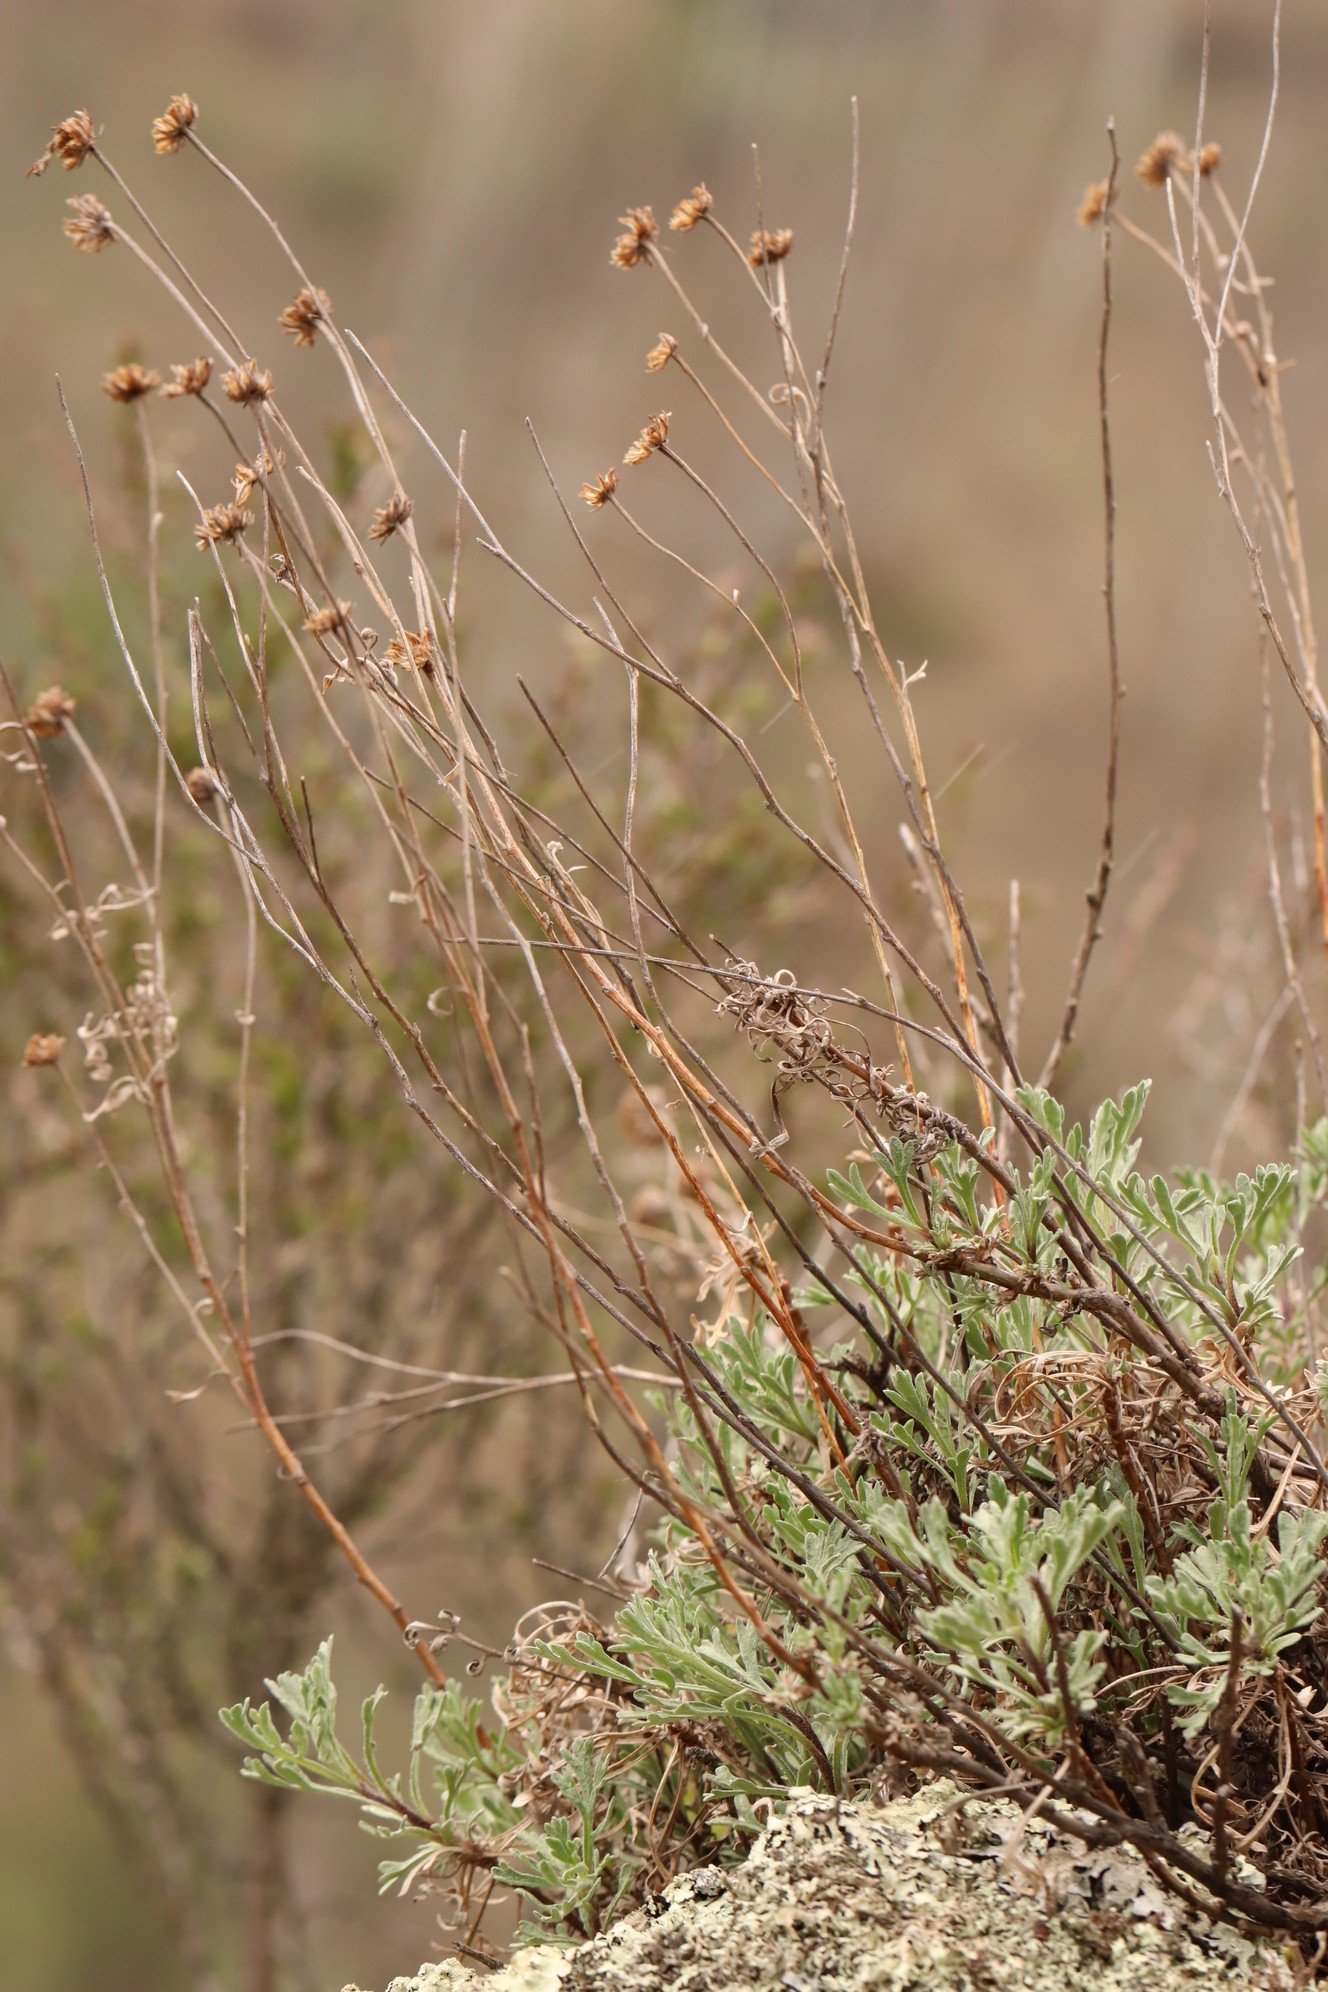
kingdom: Plantae
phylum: Tracheophyta
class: Magnoliopsida
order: Asterales
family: Asteraceae
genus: Chrysanthemum
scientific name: Chrysanthemum sinuatum
